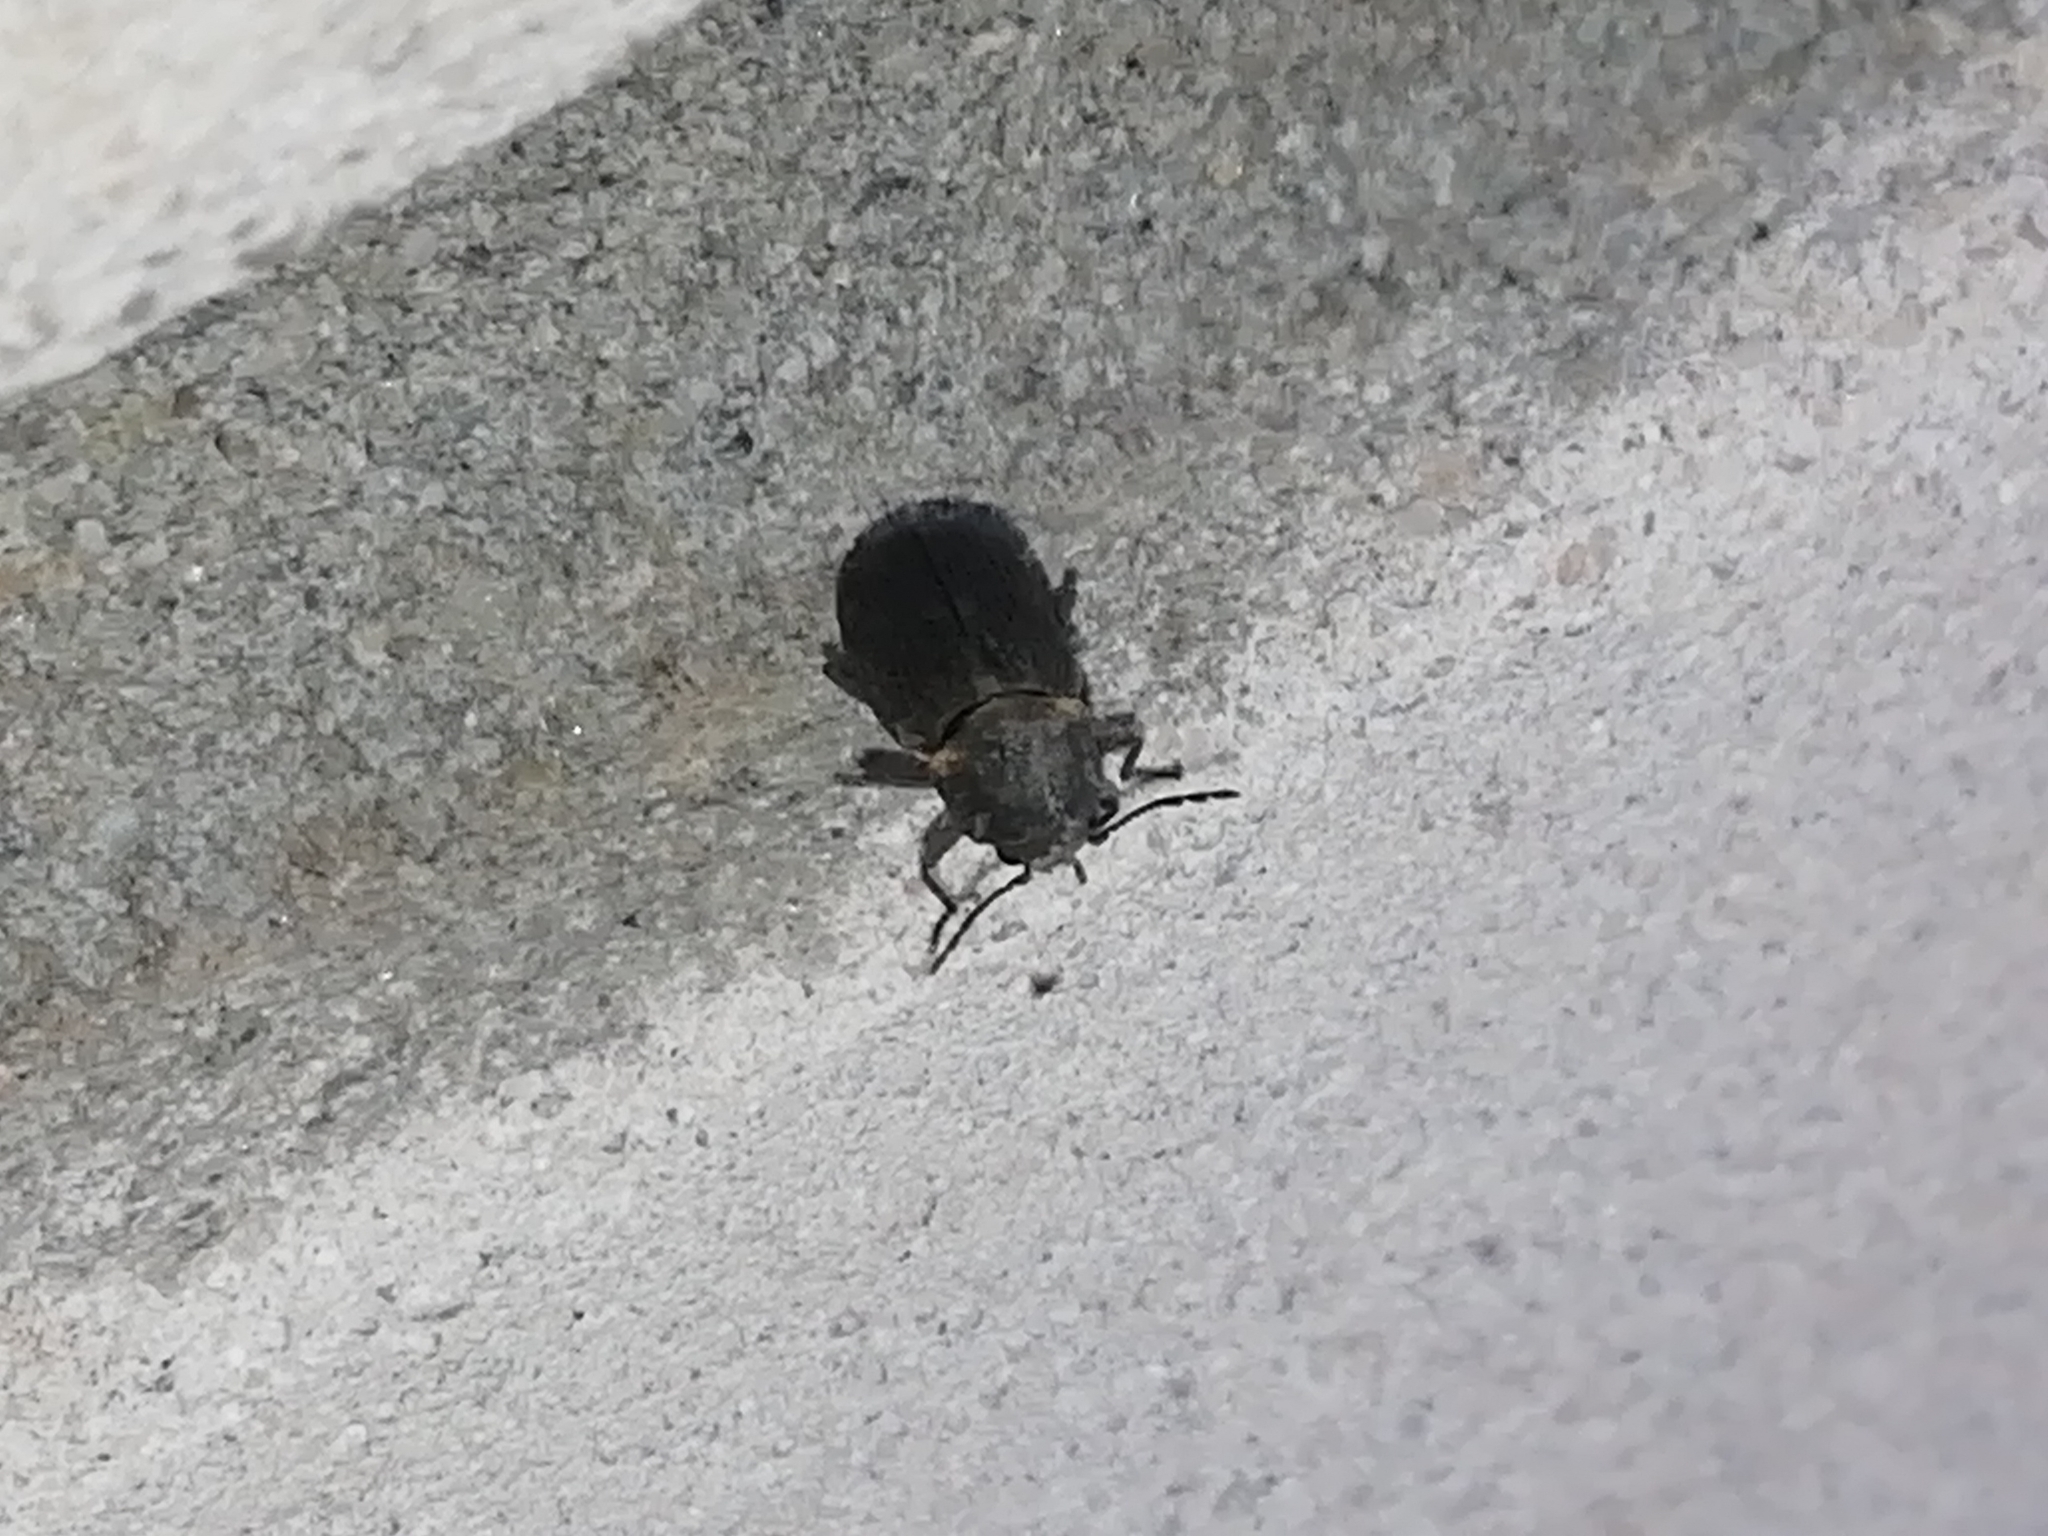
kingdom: Animalia
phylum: Arthropoda
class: Insecta
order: Coleoptera
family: Anobiidae
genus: Hadrobregmus
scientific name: Hadrobregmus pertinax
